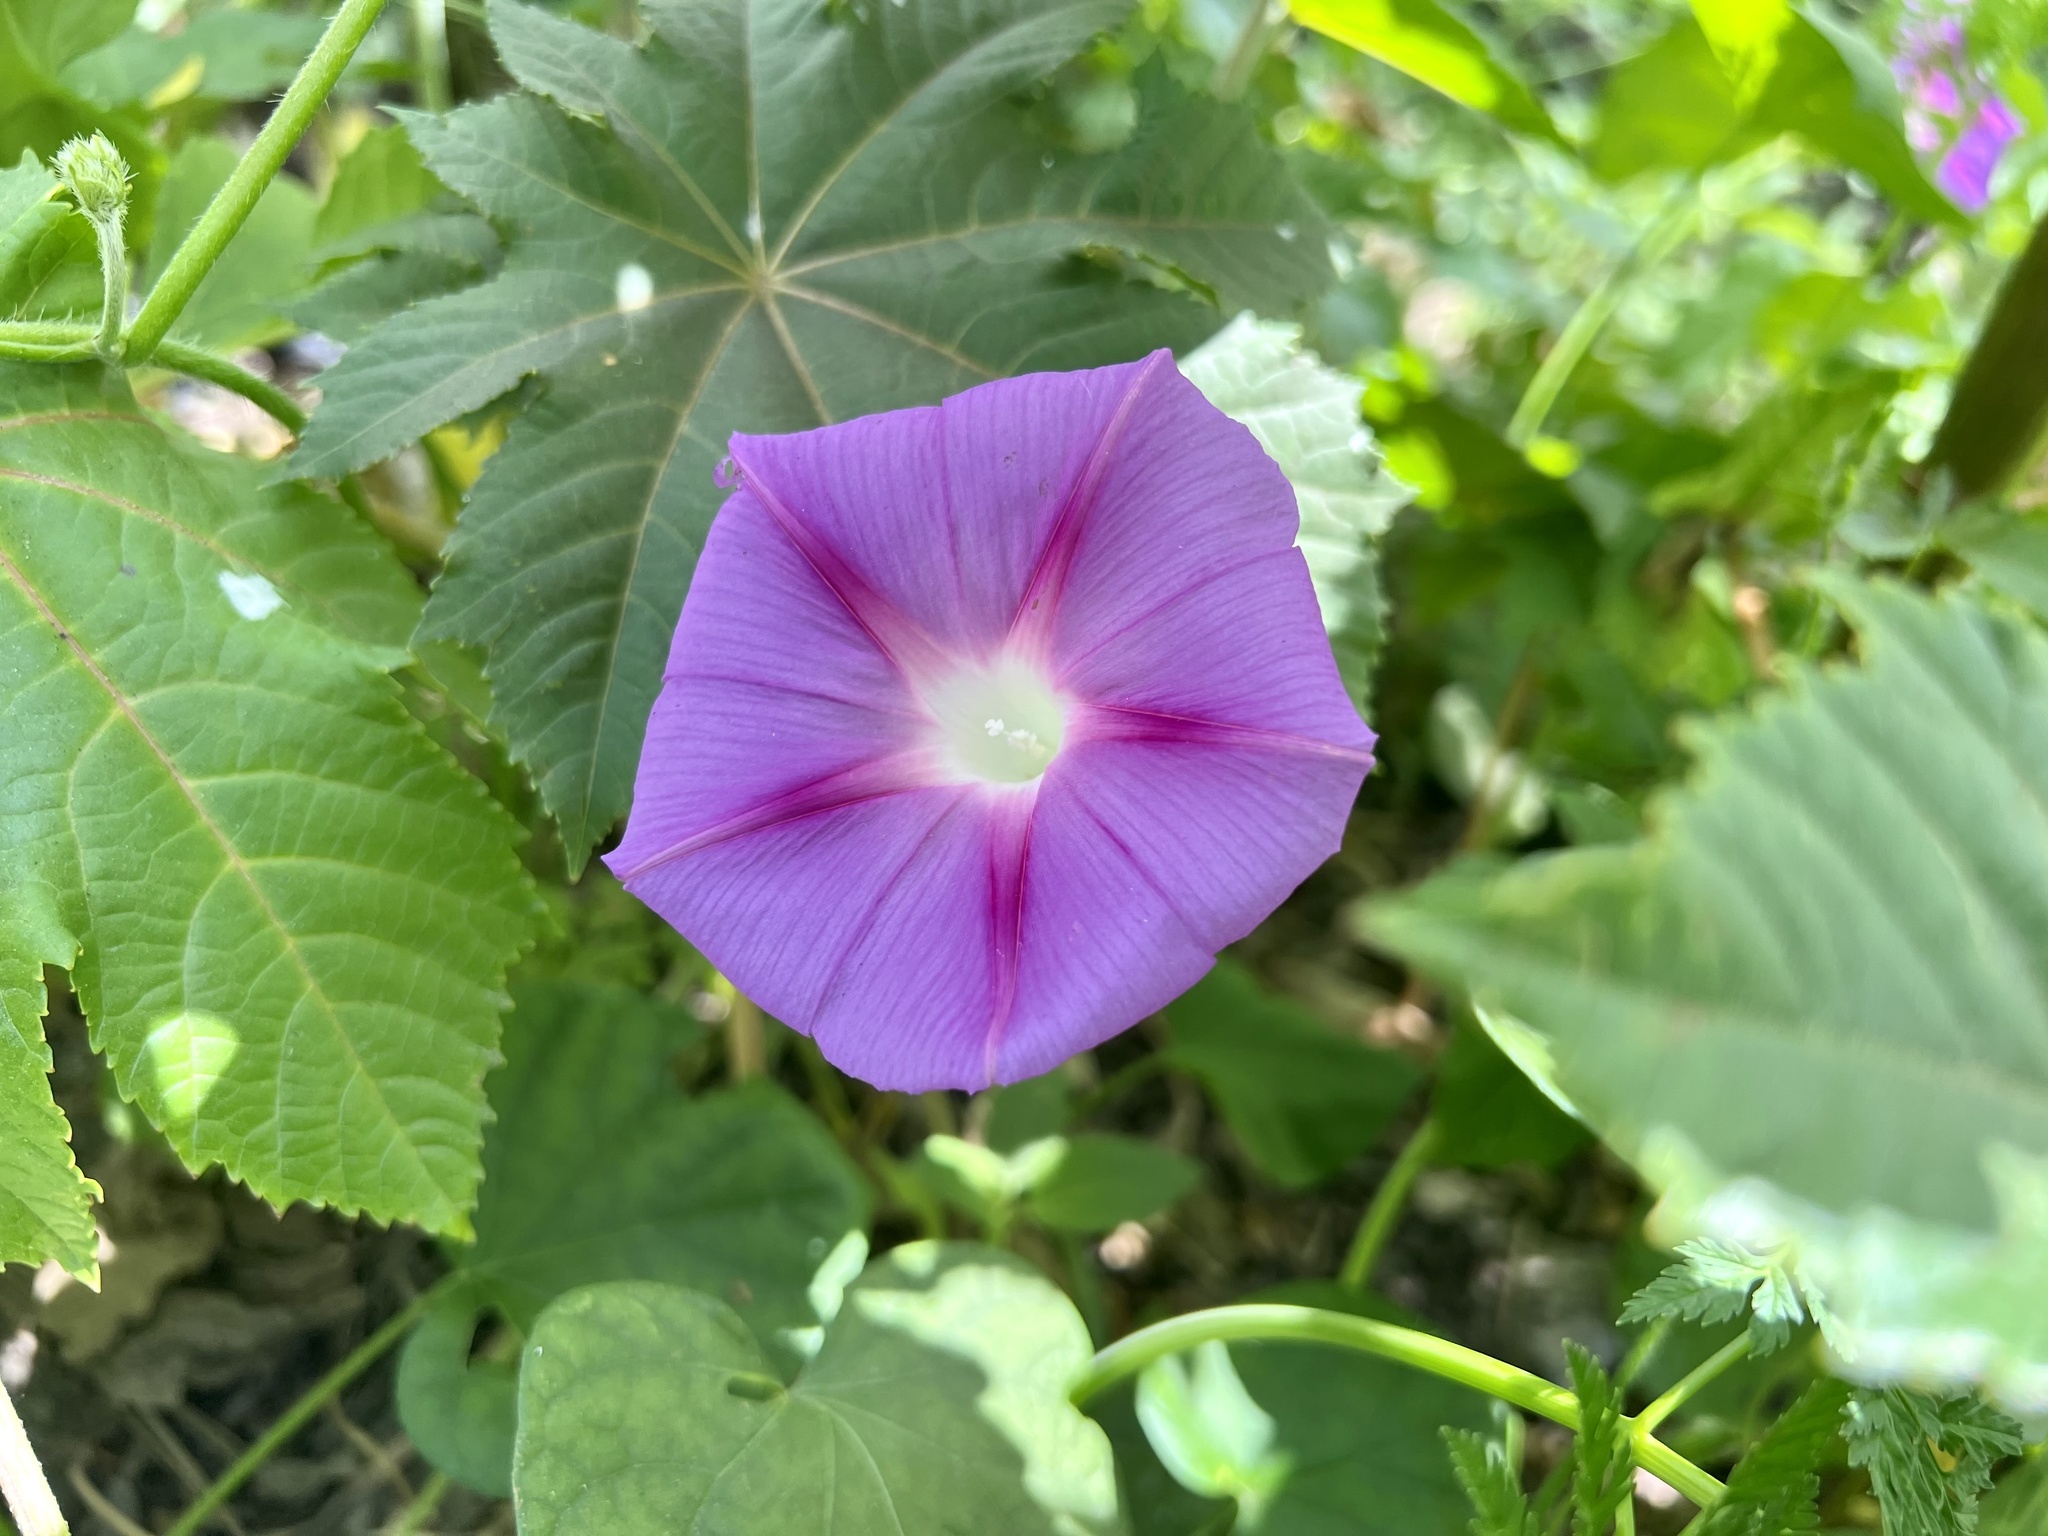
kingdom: Plantae
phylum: Tracheophyta
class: Magnoliopsida
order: Solanales
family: Convolvulaceae
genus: Ipomoea
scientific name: Ipomoea purpurea
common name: Common morning-glory
